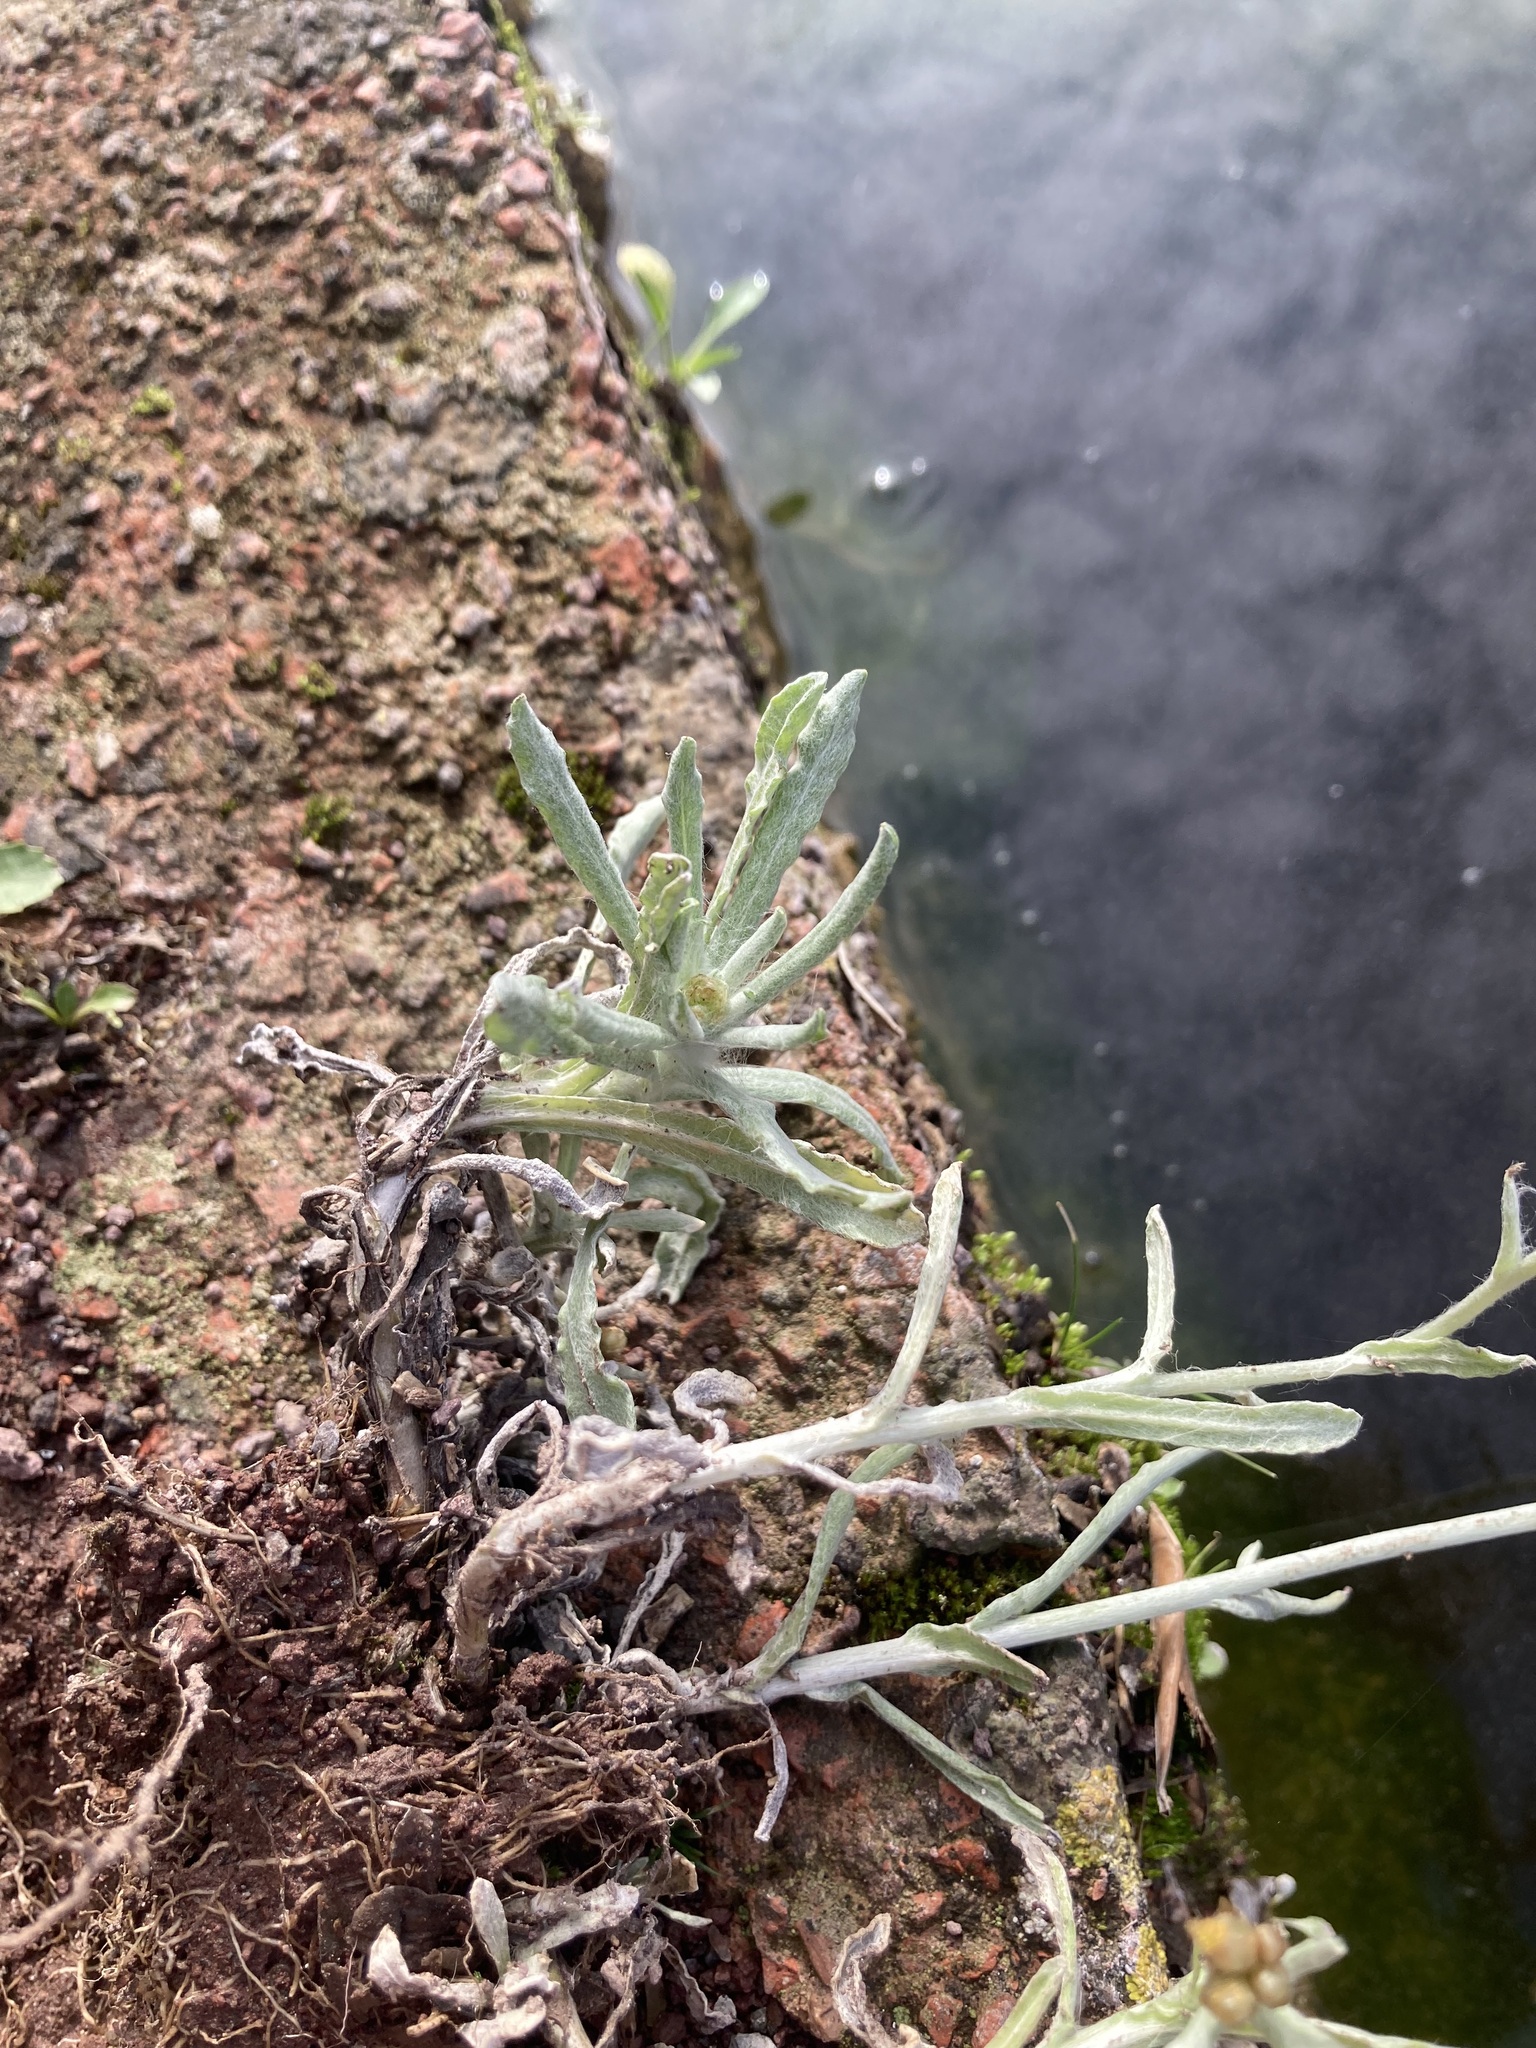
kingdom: Plantae
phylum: Tracheophyta
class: Magnoliopsida
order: Asterales
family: Asteraceae
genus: Helichrysum
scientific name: Helichrysum luteoalbum
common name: Daisy
